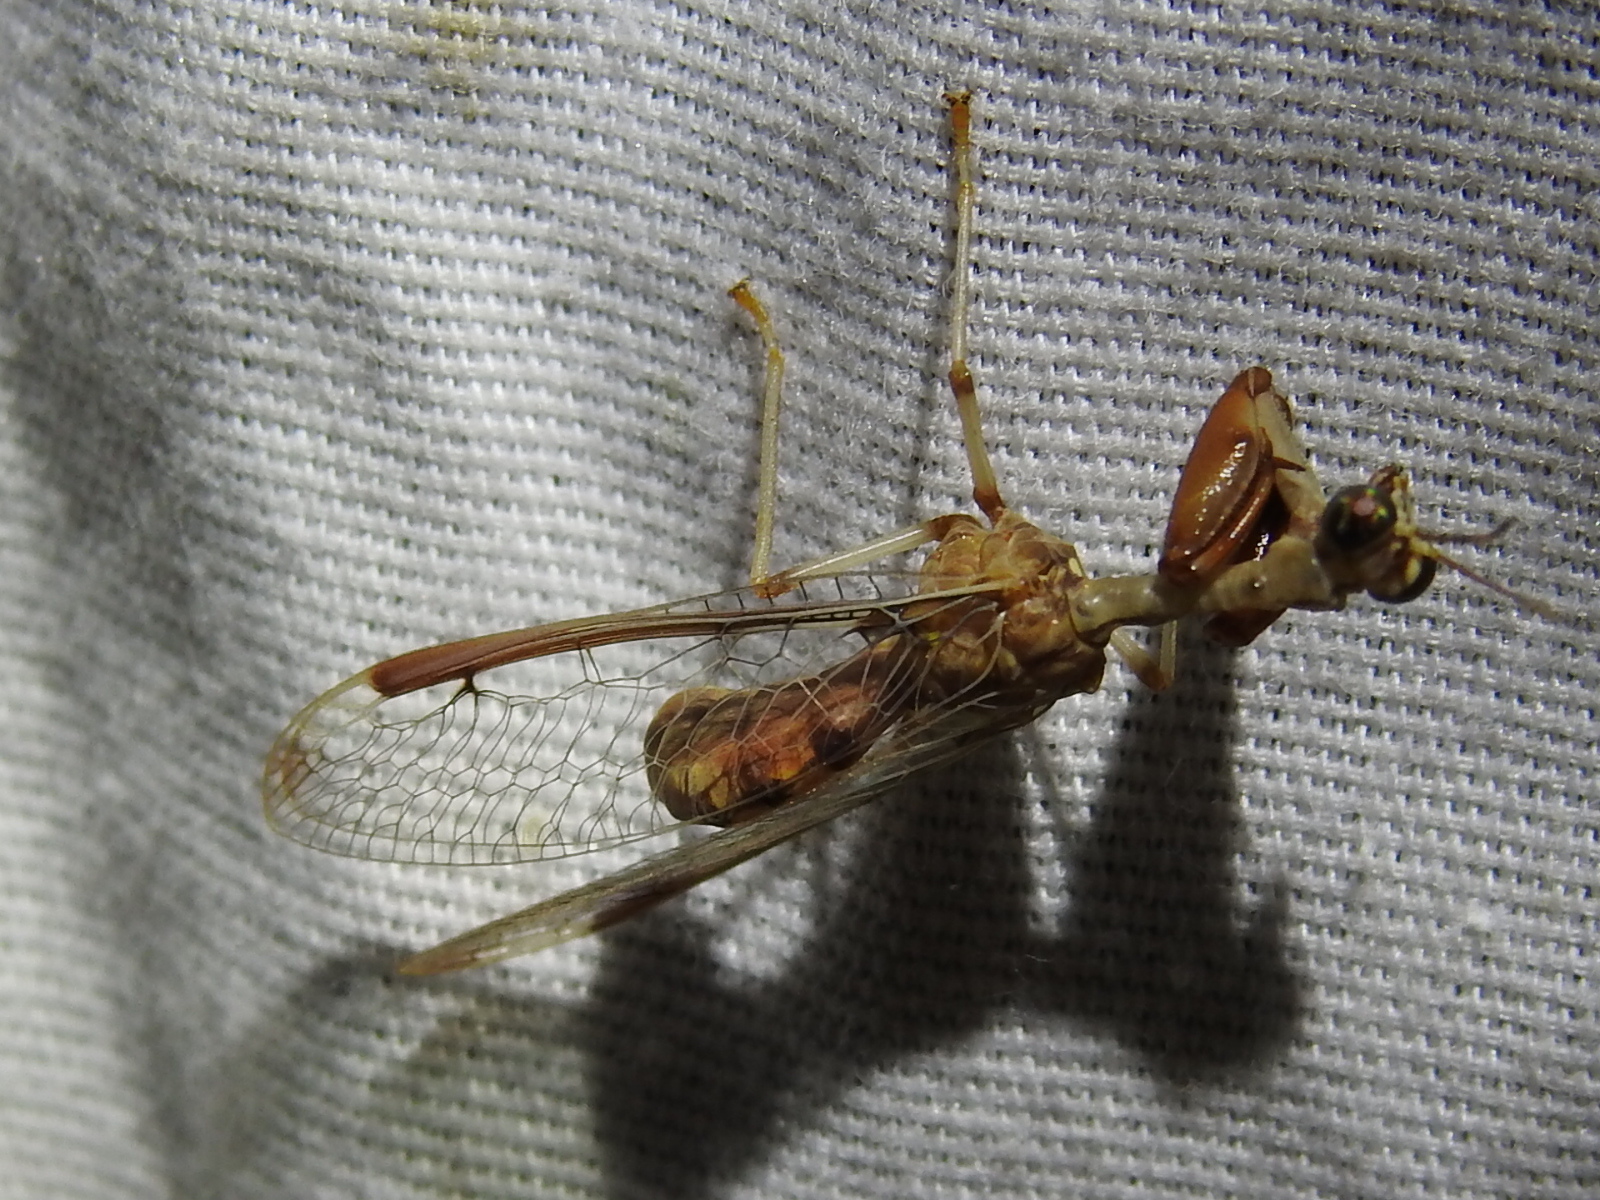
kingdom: Animalia
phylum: Arthropoda
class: Insecta
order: Neuroptera
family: Mantispidae
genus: Dicromantispa
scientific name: Dicromantispa interrupta
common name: Four-spotted mantidfly
